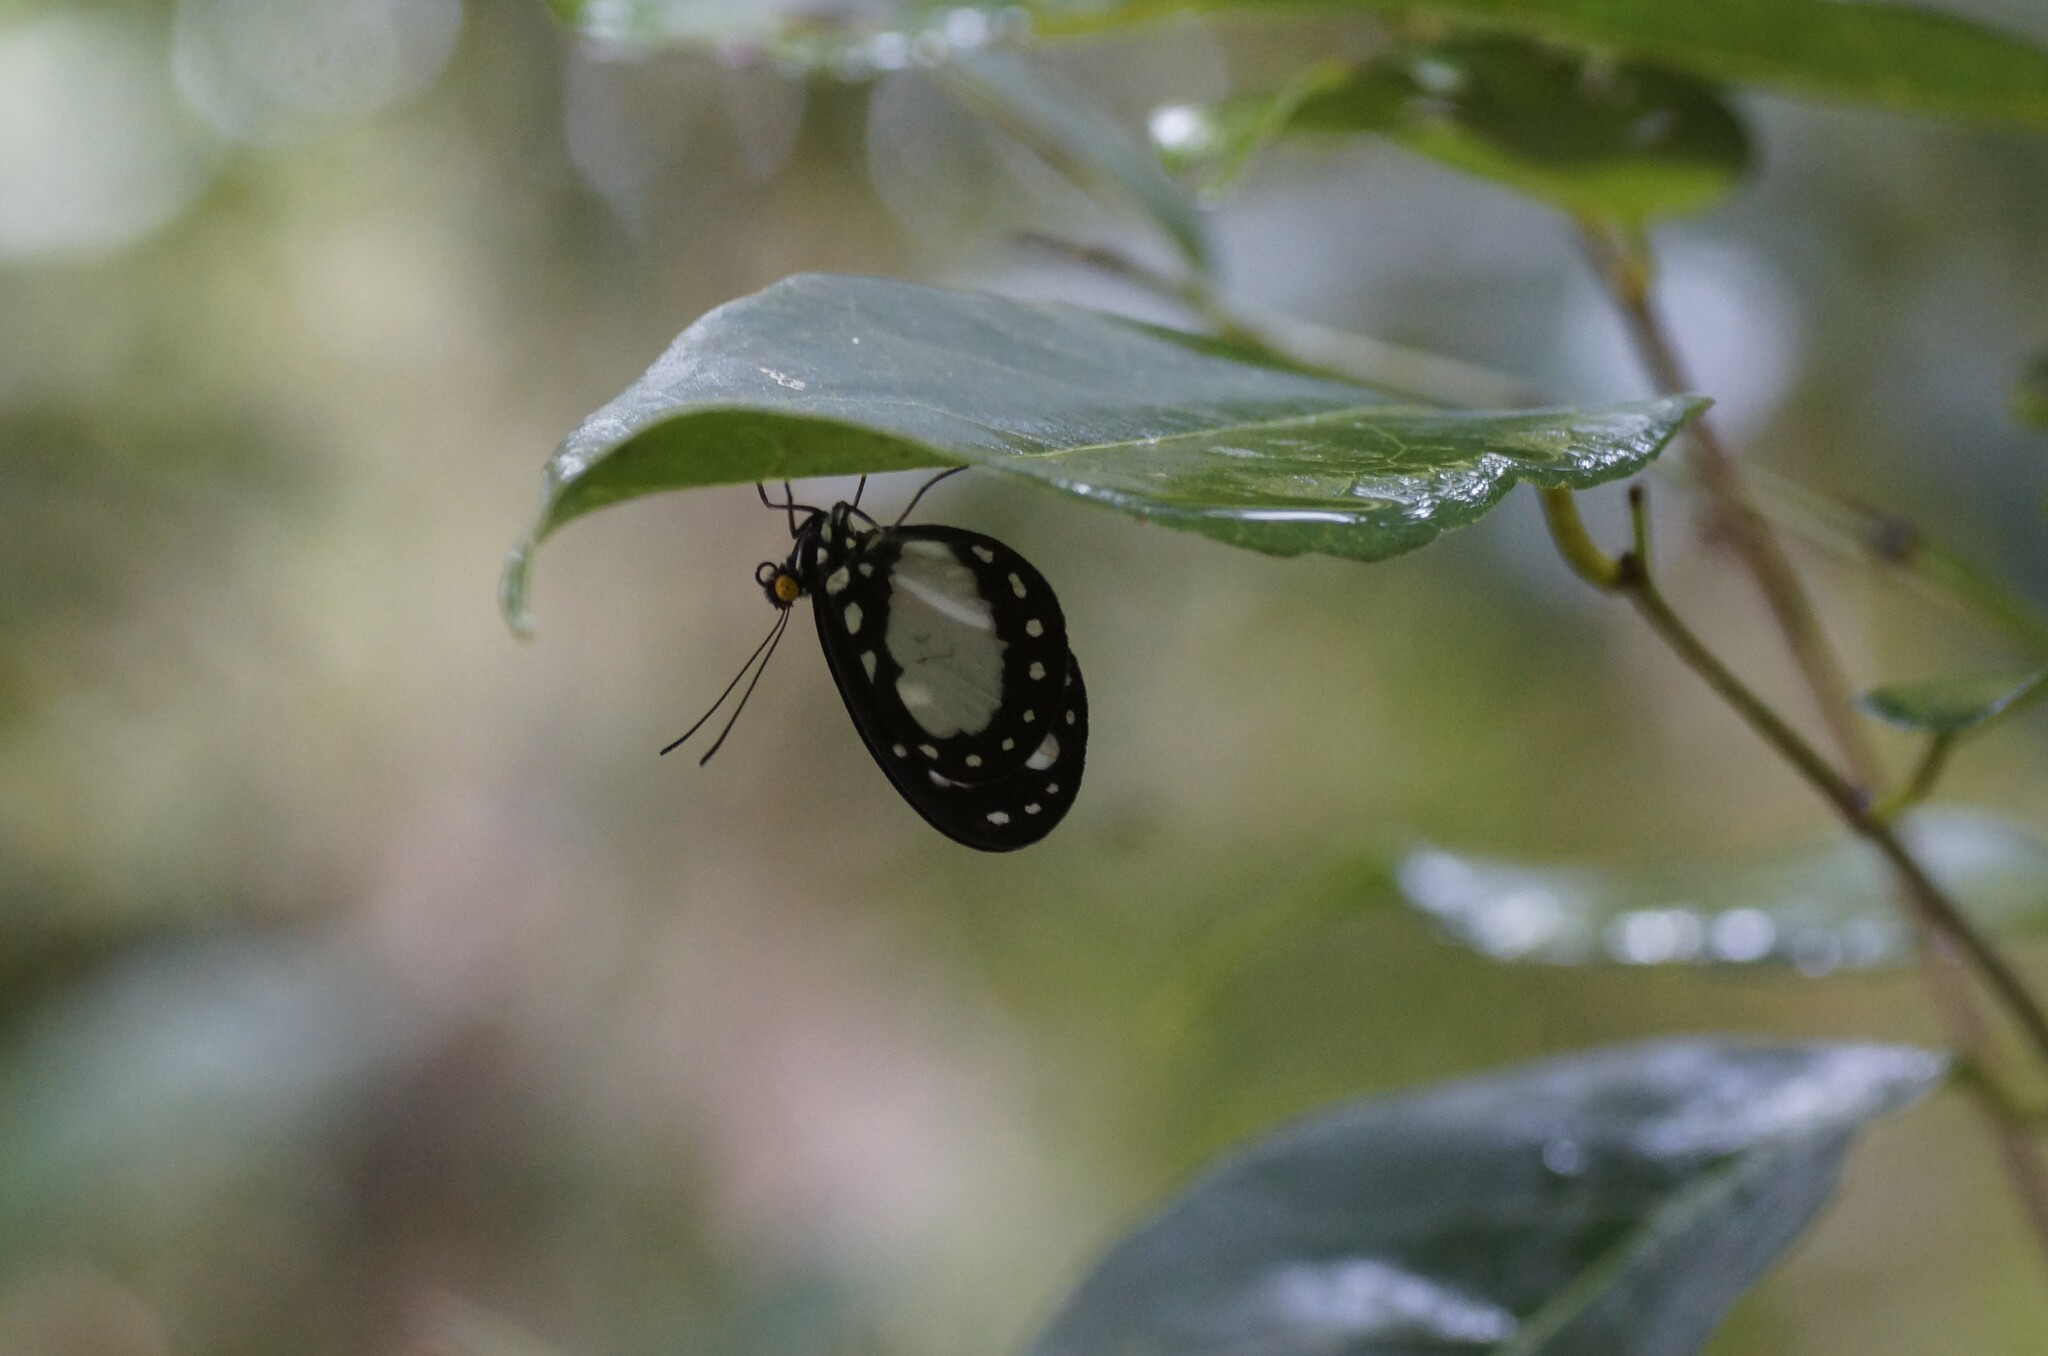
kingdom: Animalia
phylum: Arthropoda
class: Insecta
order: Lepidoptera
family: Nymphalidae
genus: Tellervo
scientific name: Tellervo zoilus
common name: Hamadryad
